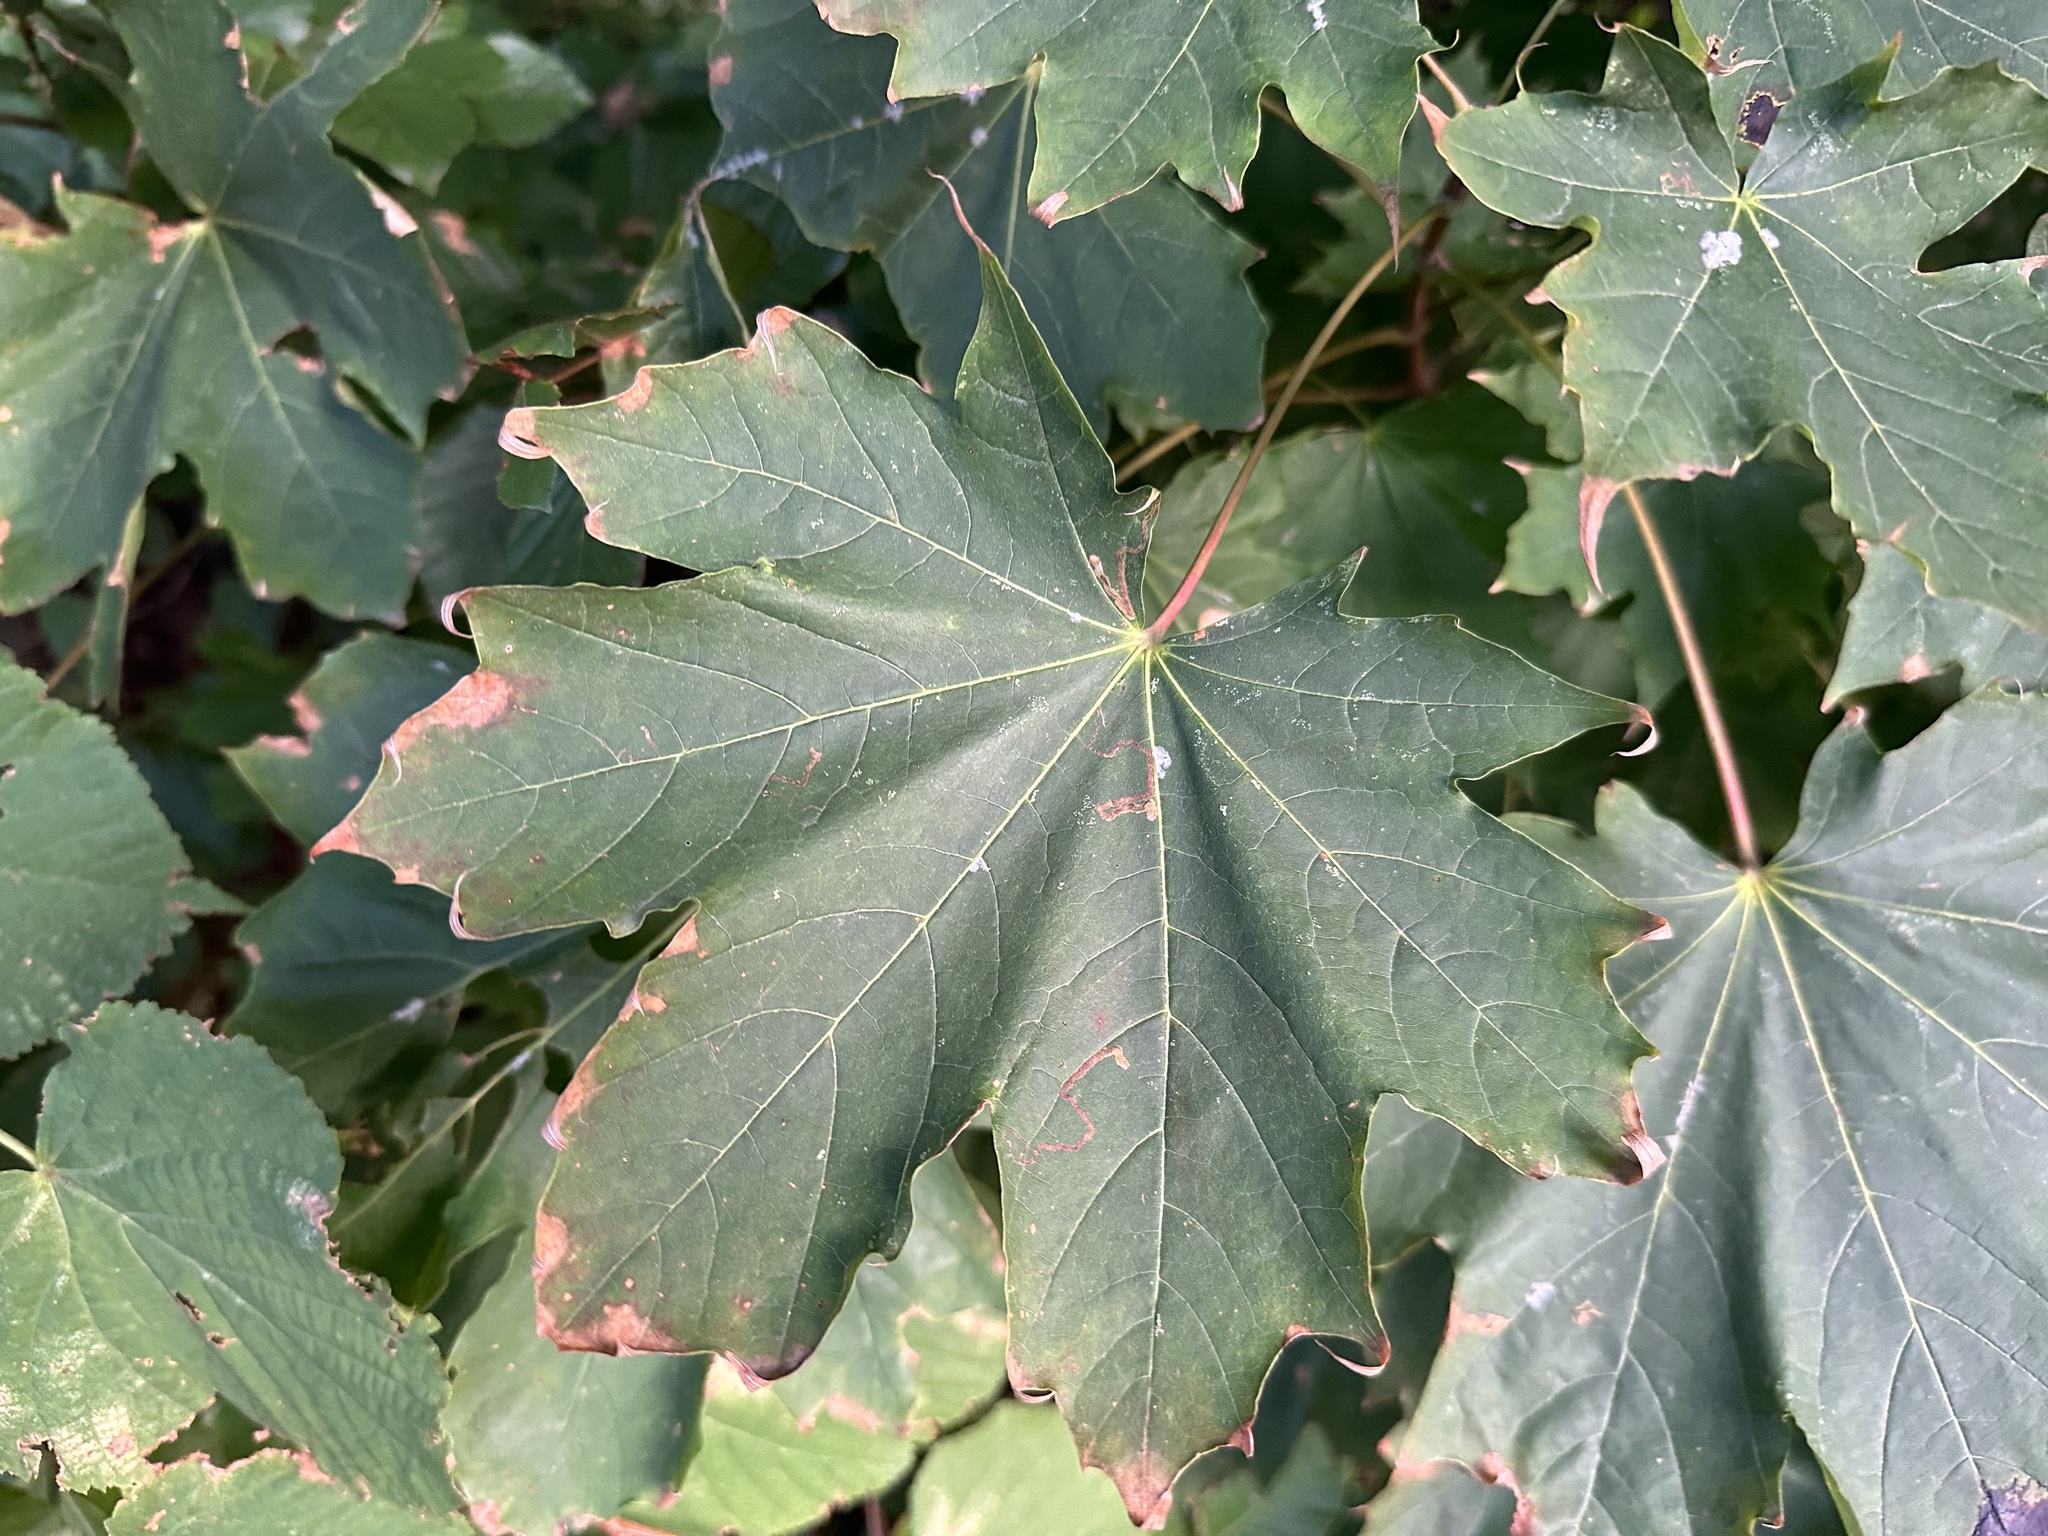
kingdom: Plantae
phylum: Tracheophyta
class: Magnoliopsida
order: Sapindales
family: Sapindaceae
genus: Acer
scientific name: Acer platanoides
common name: Norway maple
